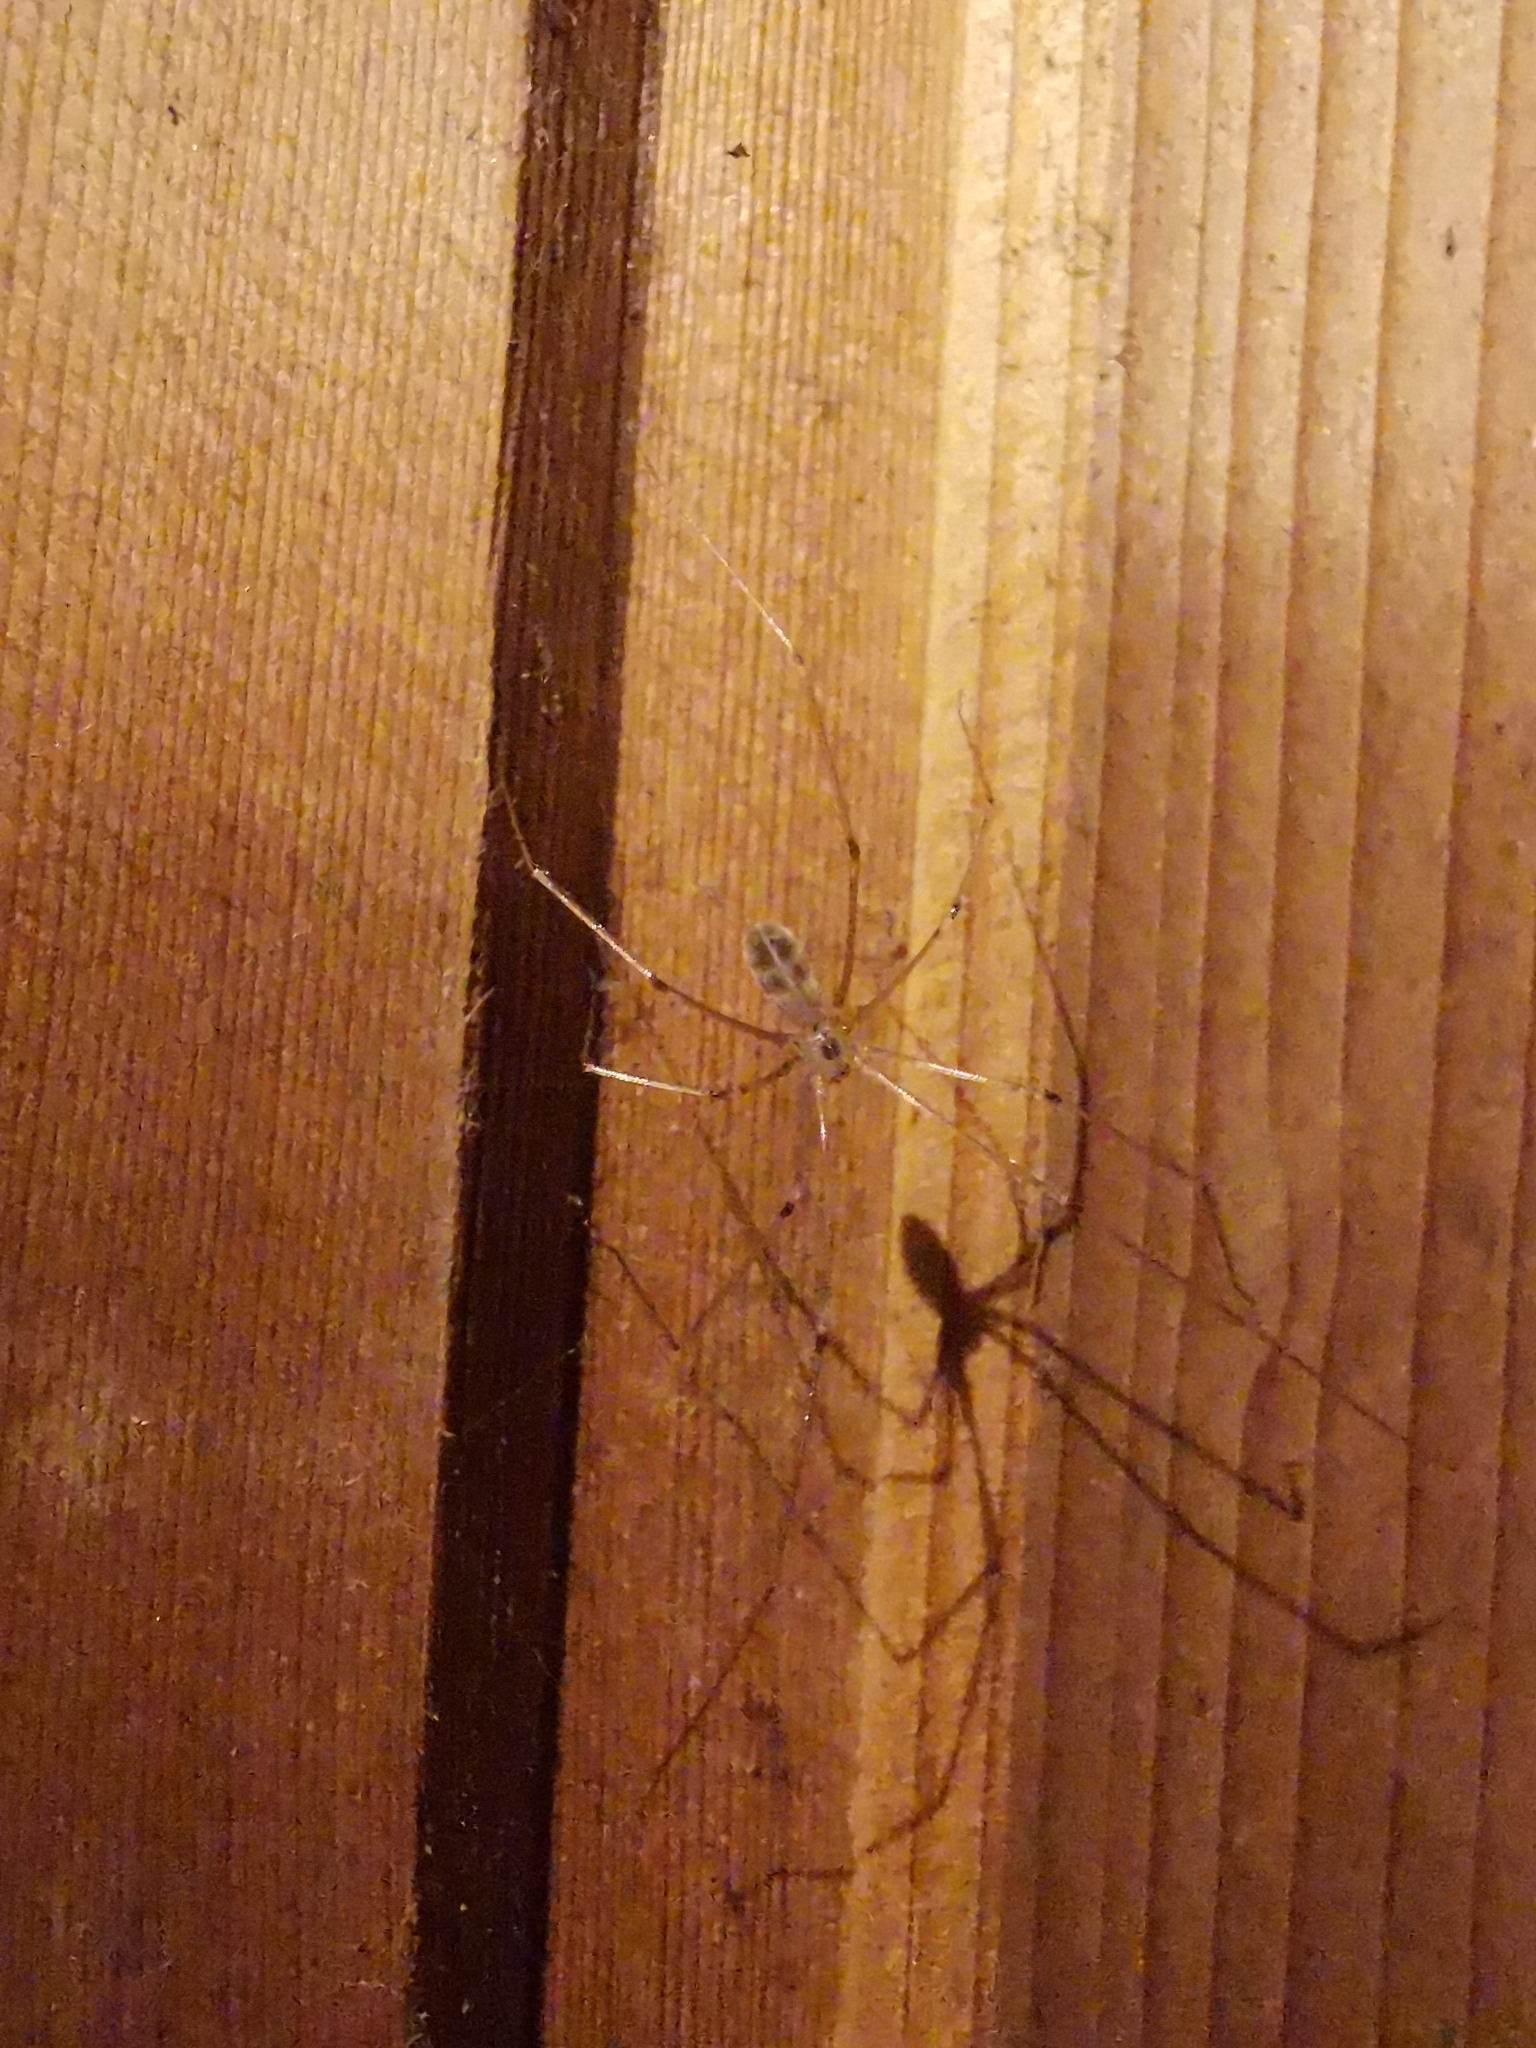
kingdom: Animalia
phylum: Arthropoda
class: Arachnida
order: Araneae
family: Pholcidae
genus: Pholcus
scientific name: Pholcus phalangioides
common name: Longbodied cellar spider
